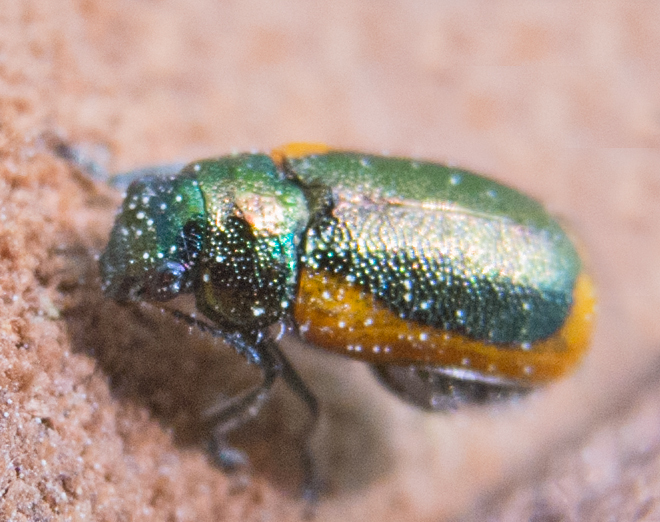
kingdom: Animalia
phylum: Arthropoda
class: Insecta
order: Coleoptera
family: Chrysomelidae
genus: Smaragdina
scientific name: Smaragdina limbata
